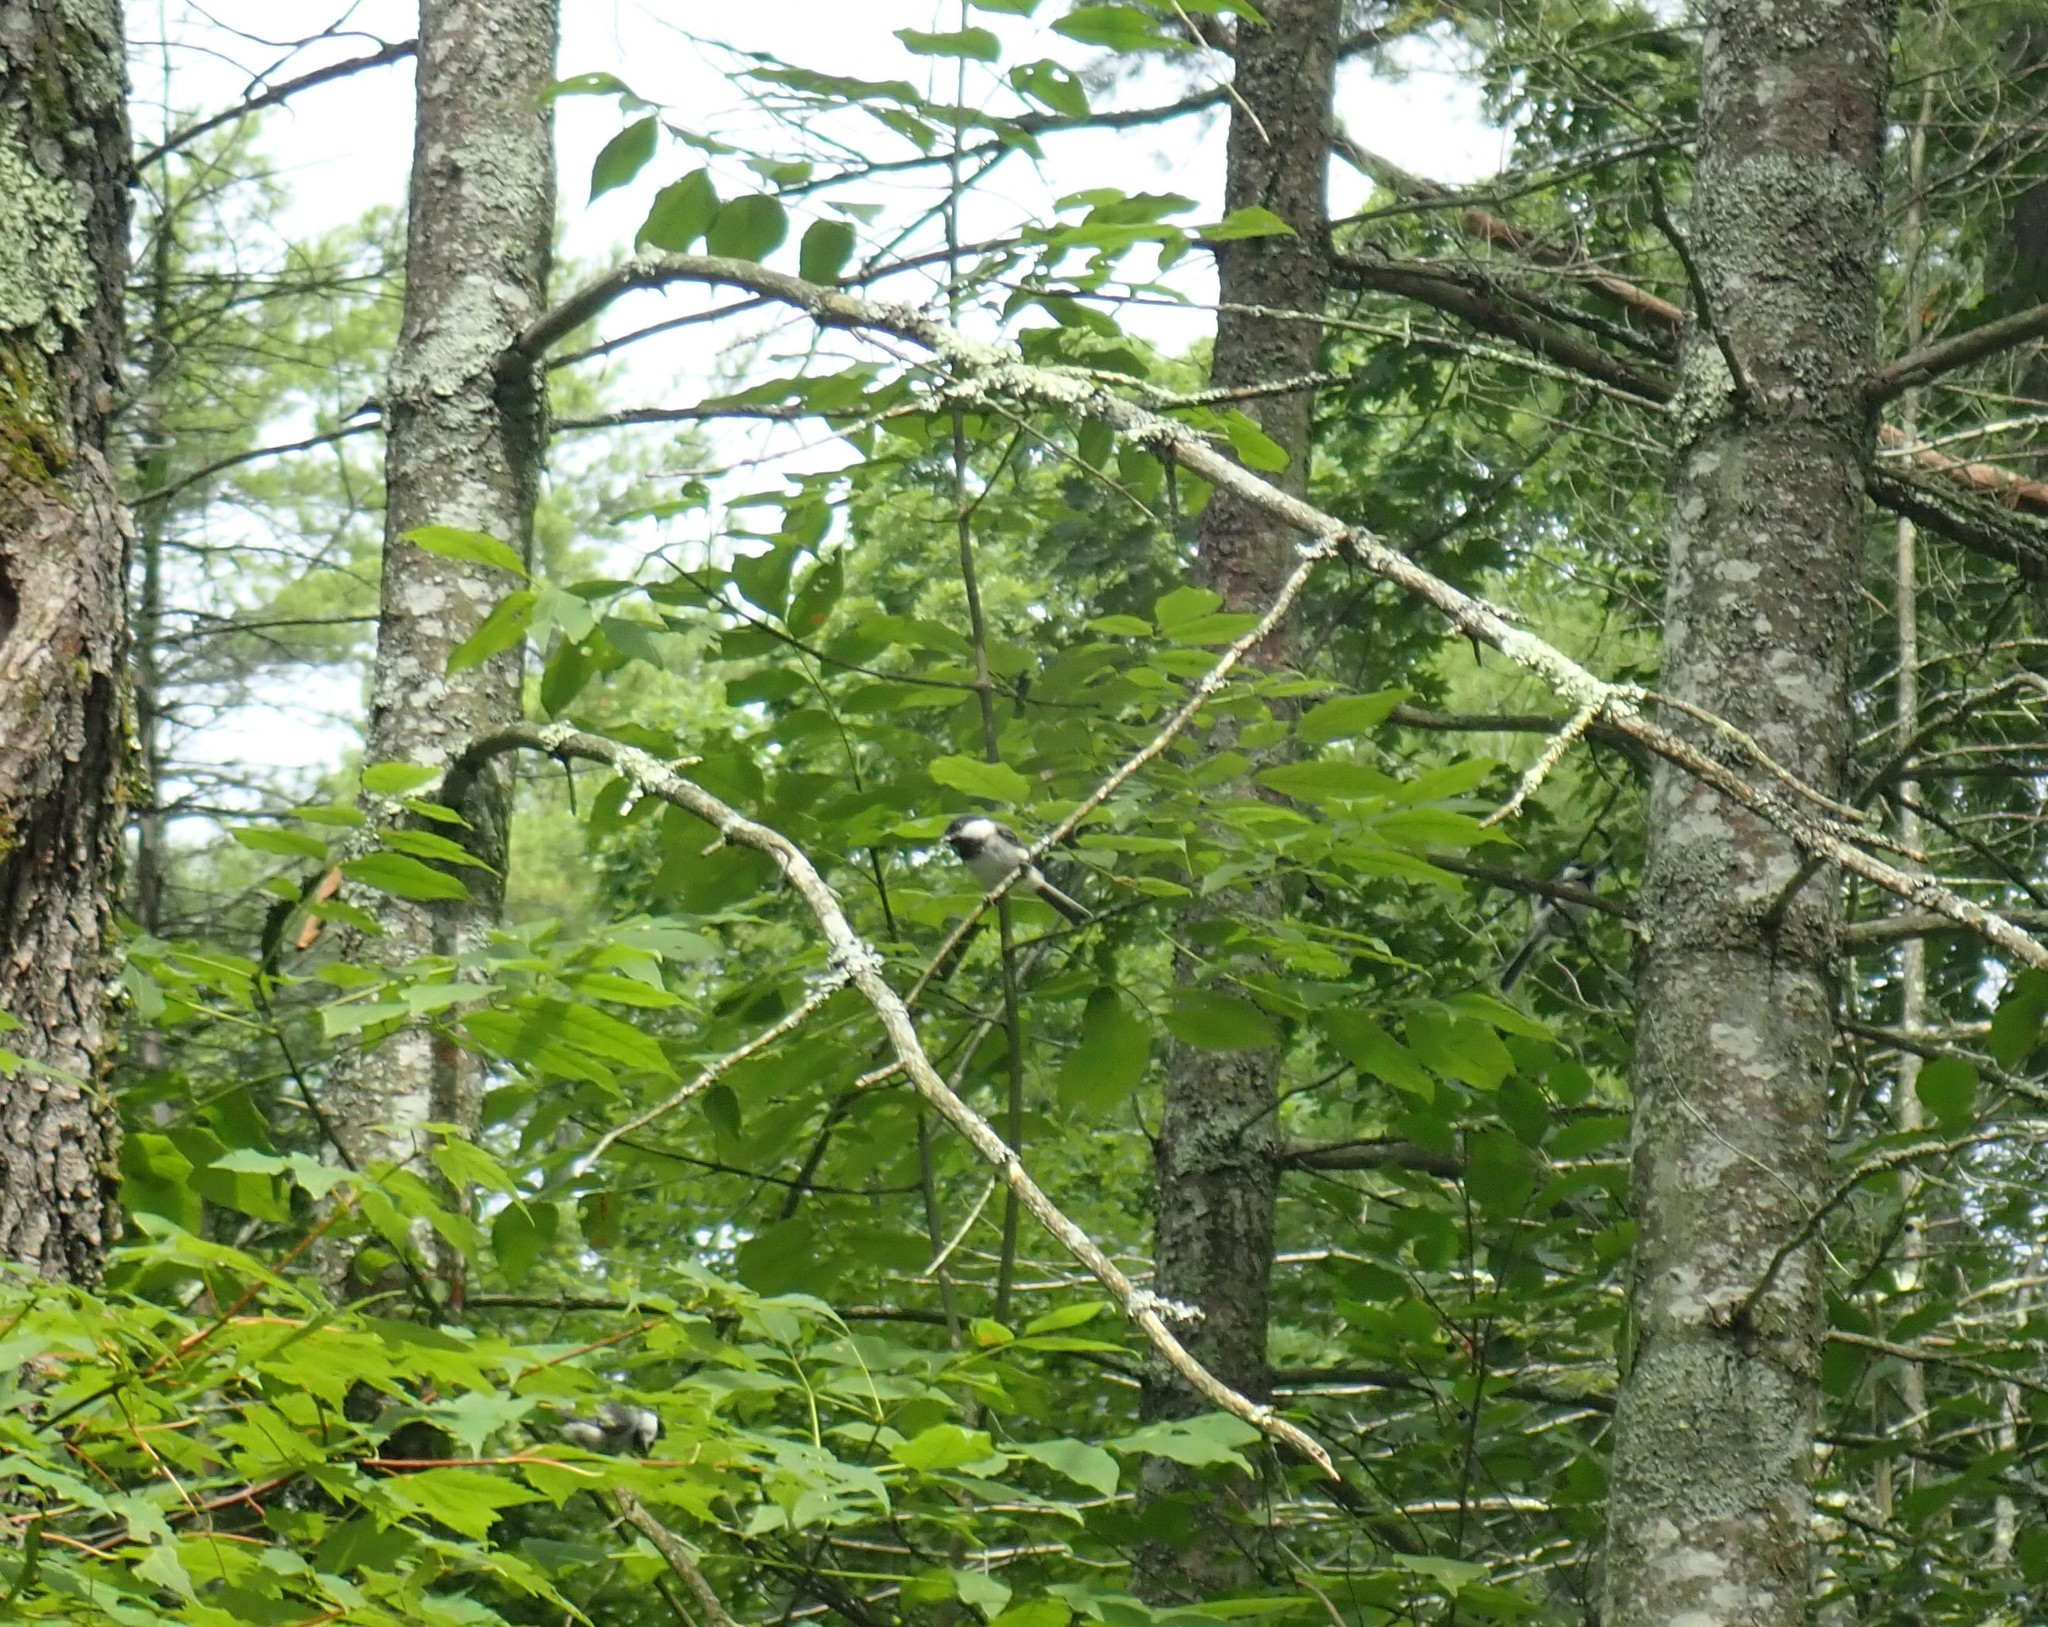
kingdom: Animalia
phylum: Chordata
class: Aves
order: Passeriformes
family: Paridae
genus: Poecile
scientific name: Poecile atricapillus
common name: Black-capped chickadee
